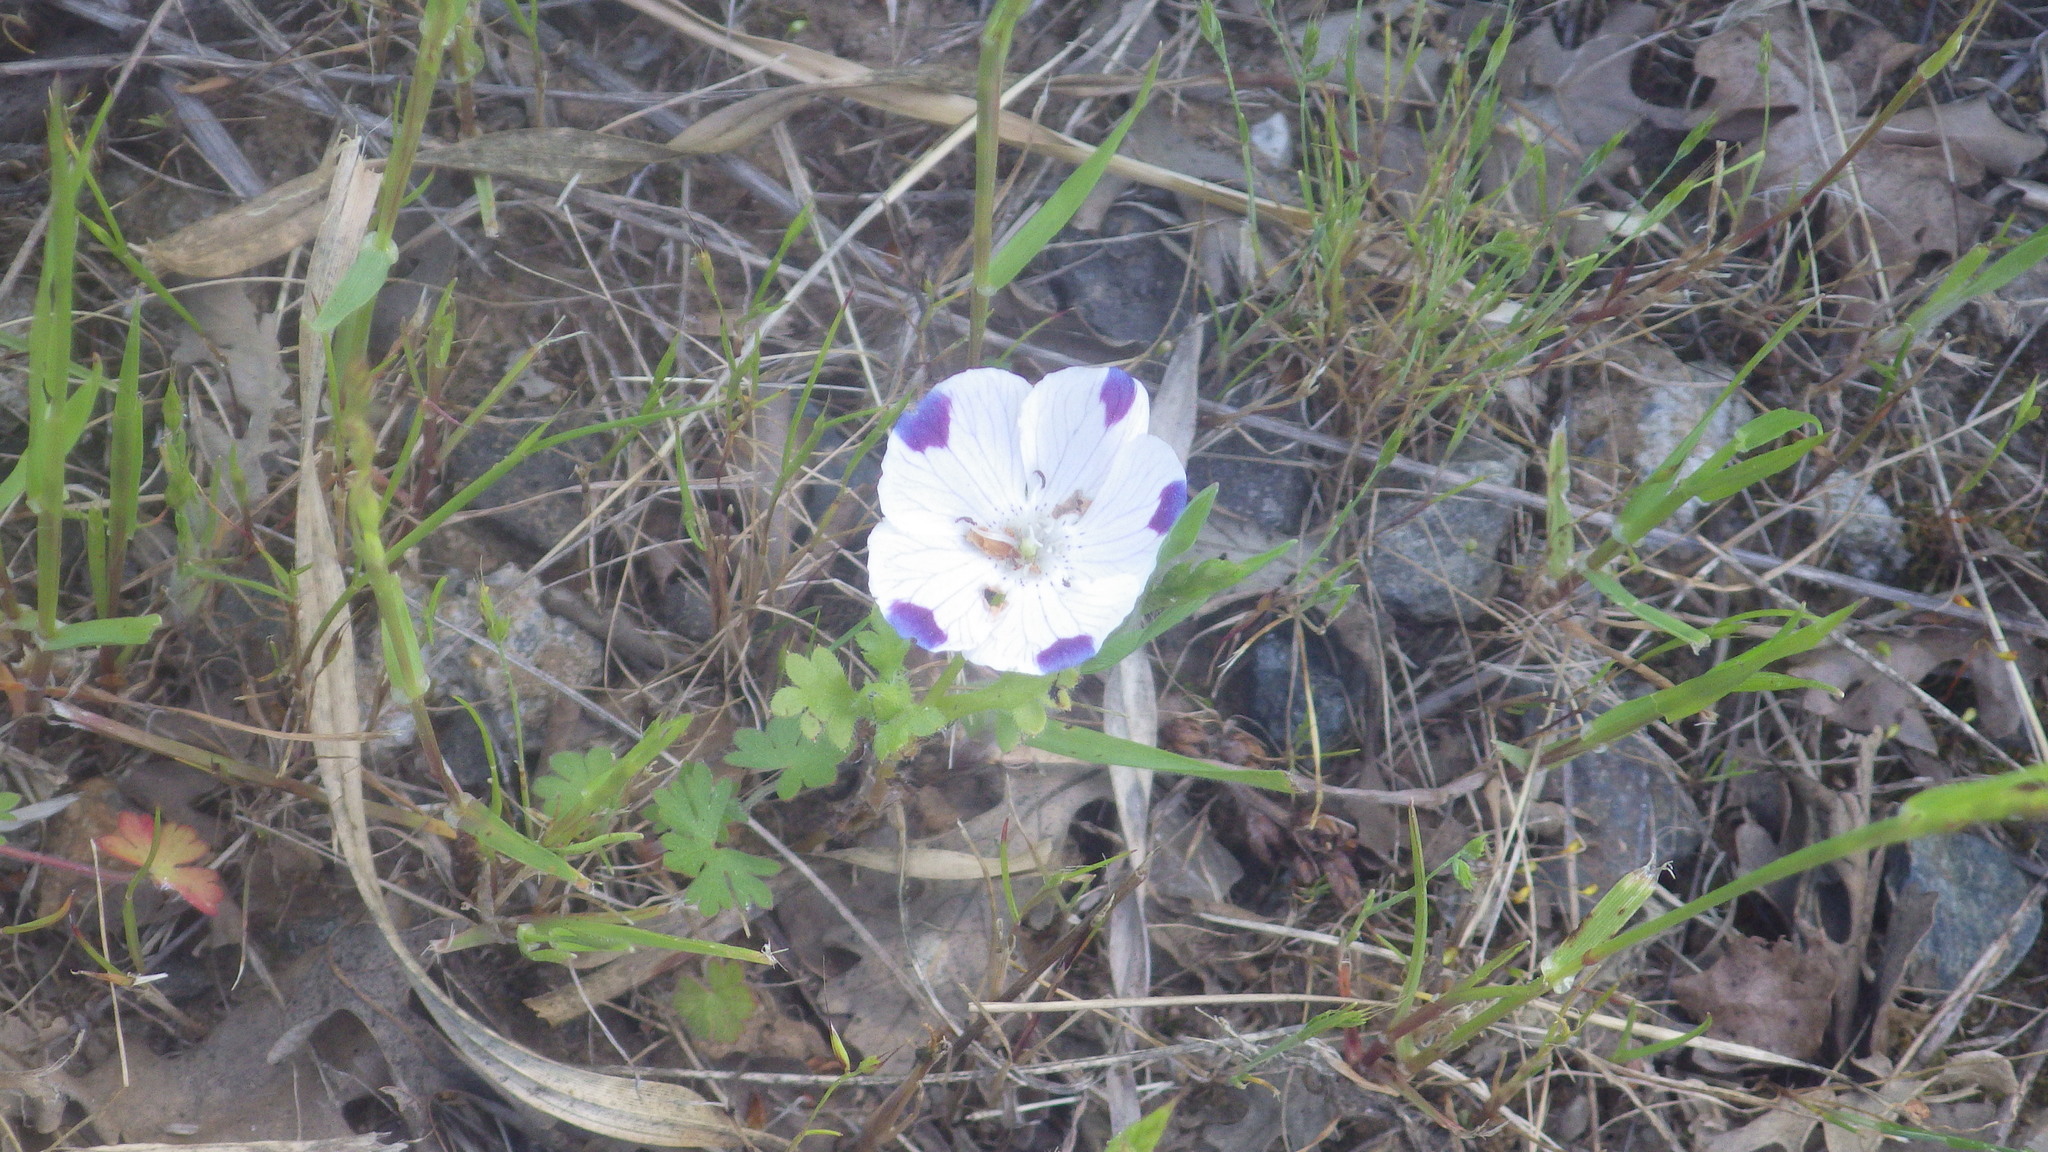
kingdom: Plantae
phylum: Tracheophyta
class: Magnoliopsida
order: Boraginales
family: Hydrophyllaceae
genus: Nemophila
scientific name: Nemophila maculata
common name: Fivespot
